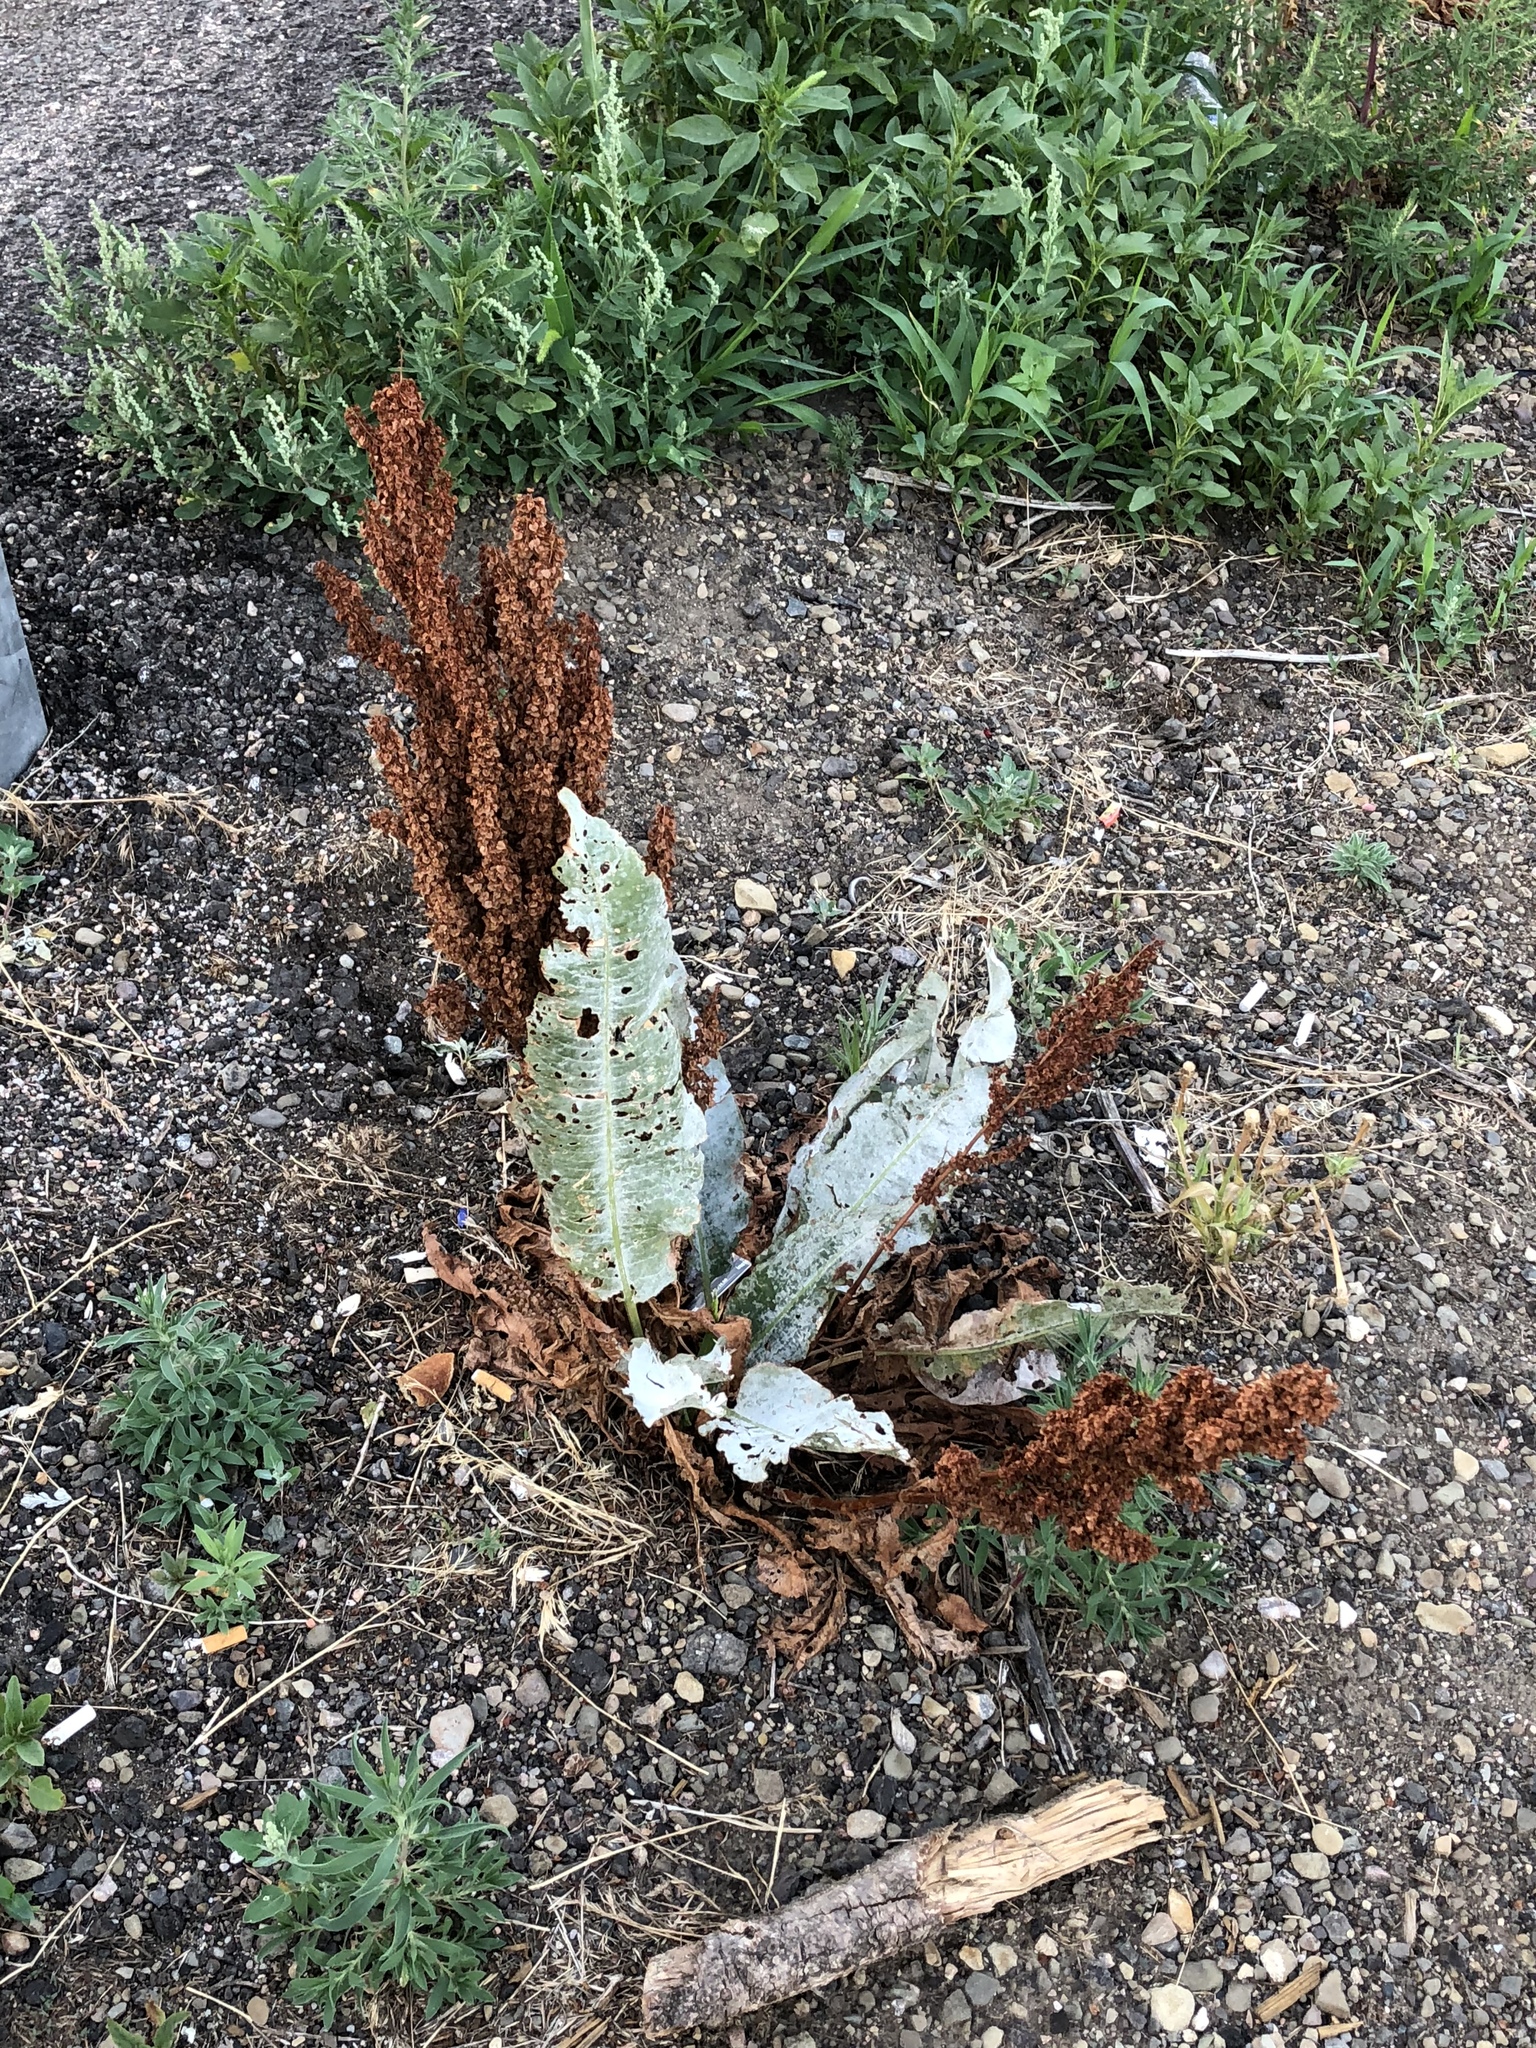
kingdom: Plantae
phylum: Tracheophyta
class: Magnoliopsida
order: Caryophyllales
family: Polygonaceae
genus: Rumex
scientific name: Rumex crispus
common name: Curled dock
